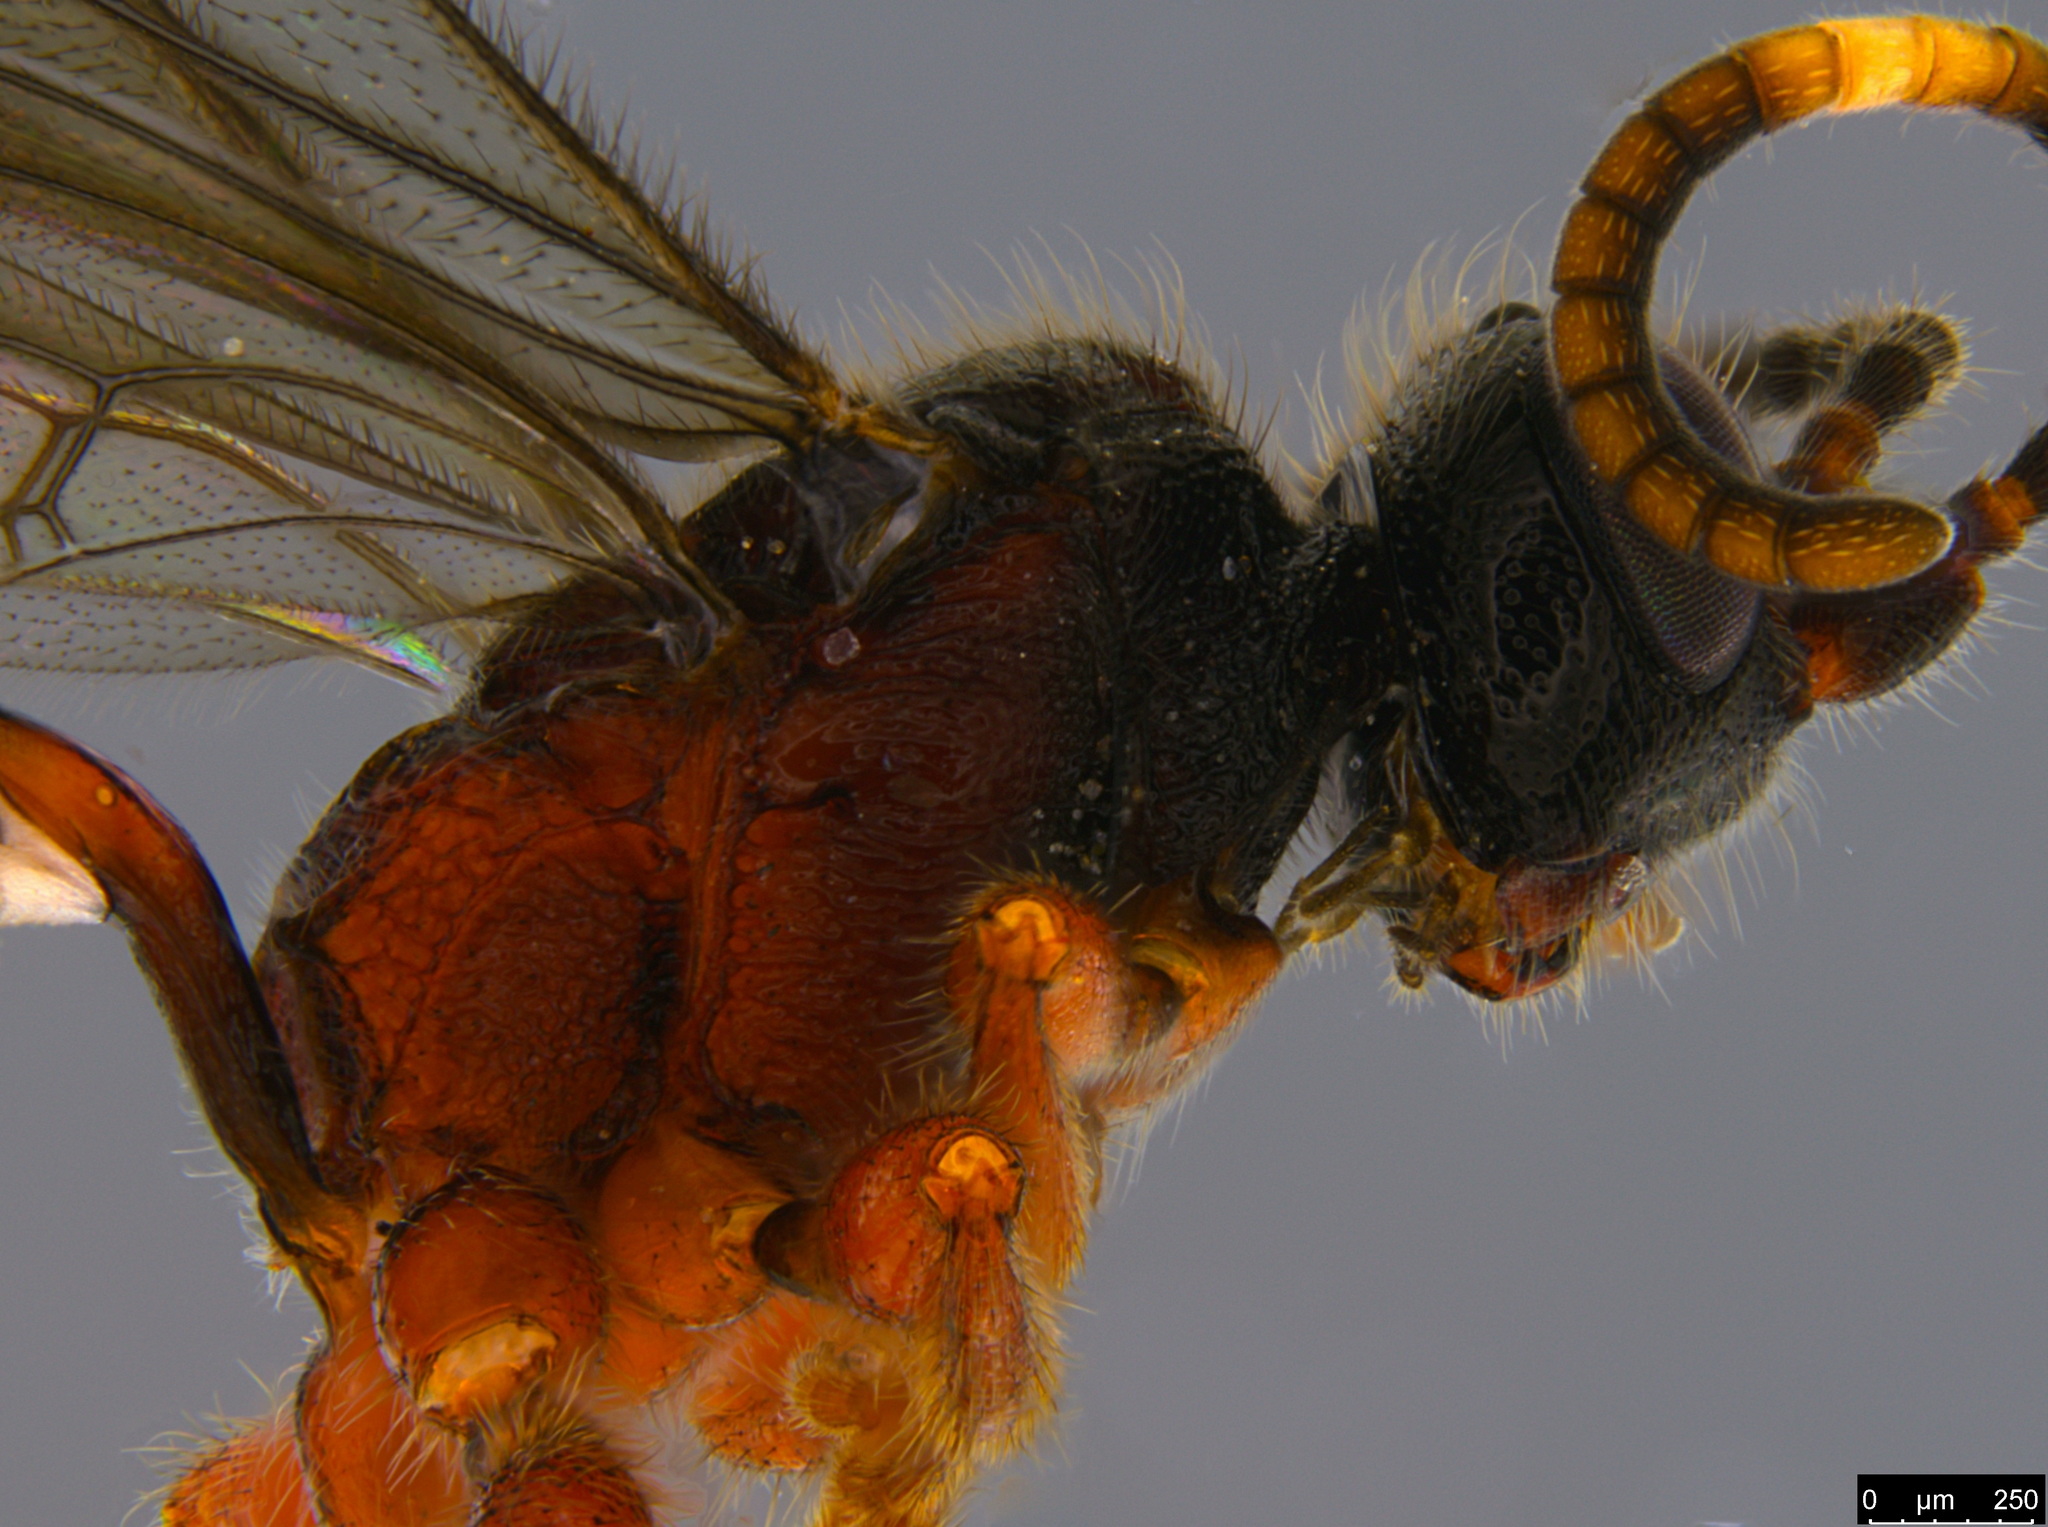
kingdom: Animalia
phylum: Arthropoda
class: Insecta
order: Hymenoptera
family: Ichneumonidae
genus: Meringops
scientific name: Meringops
